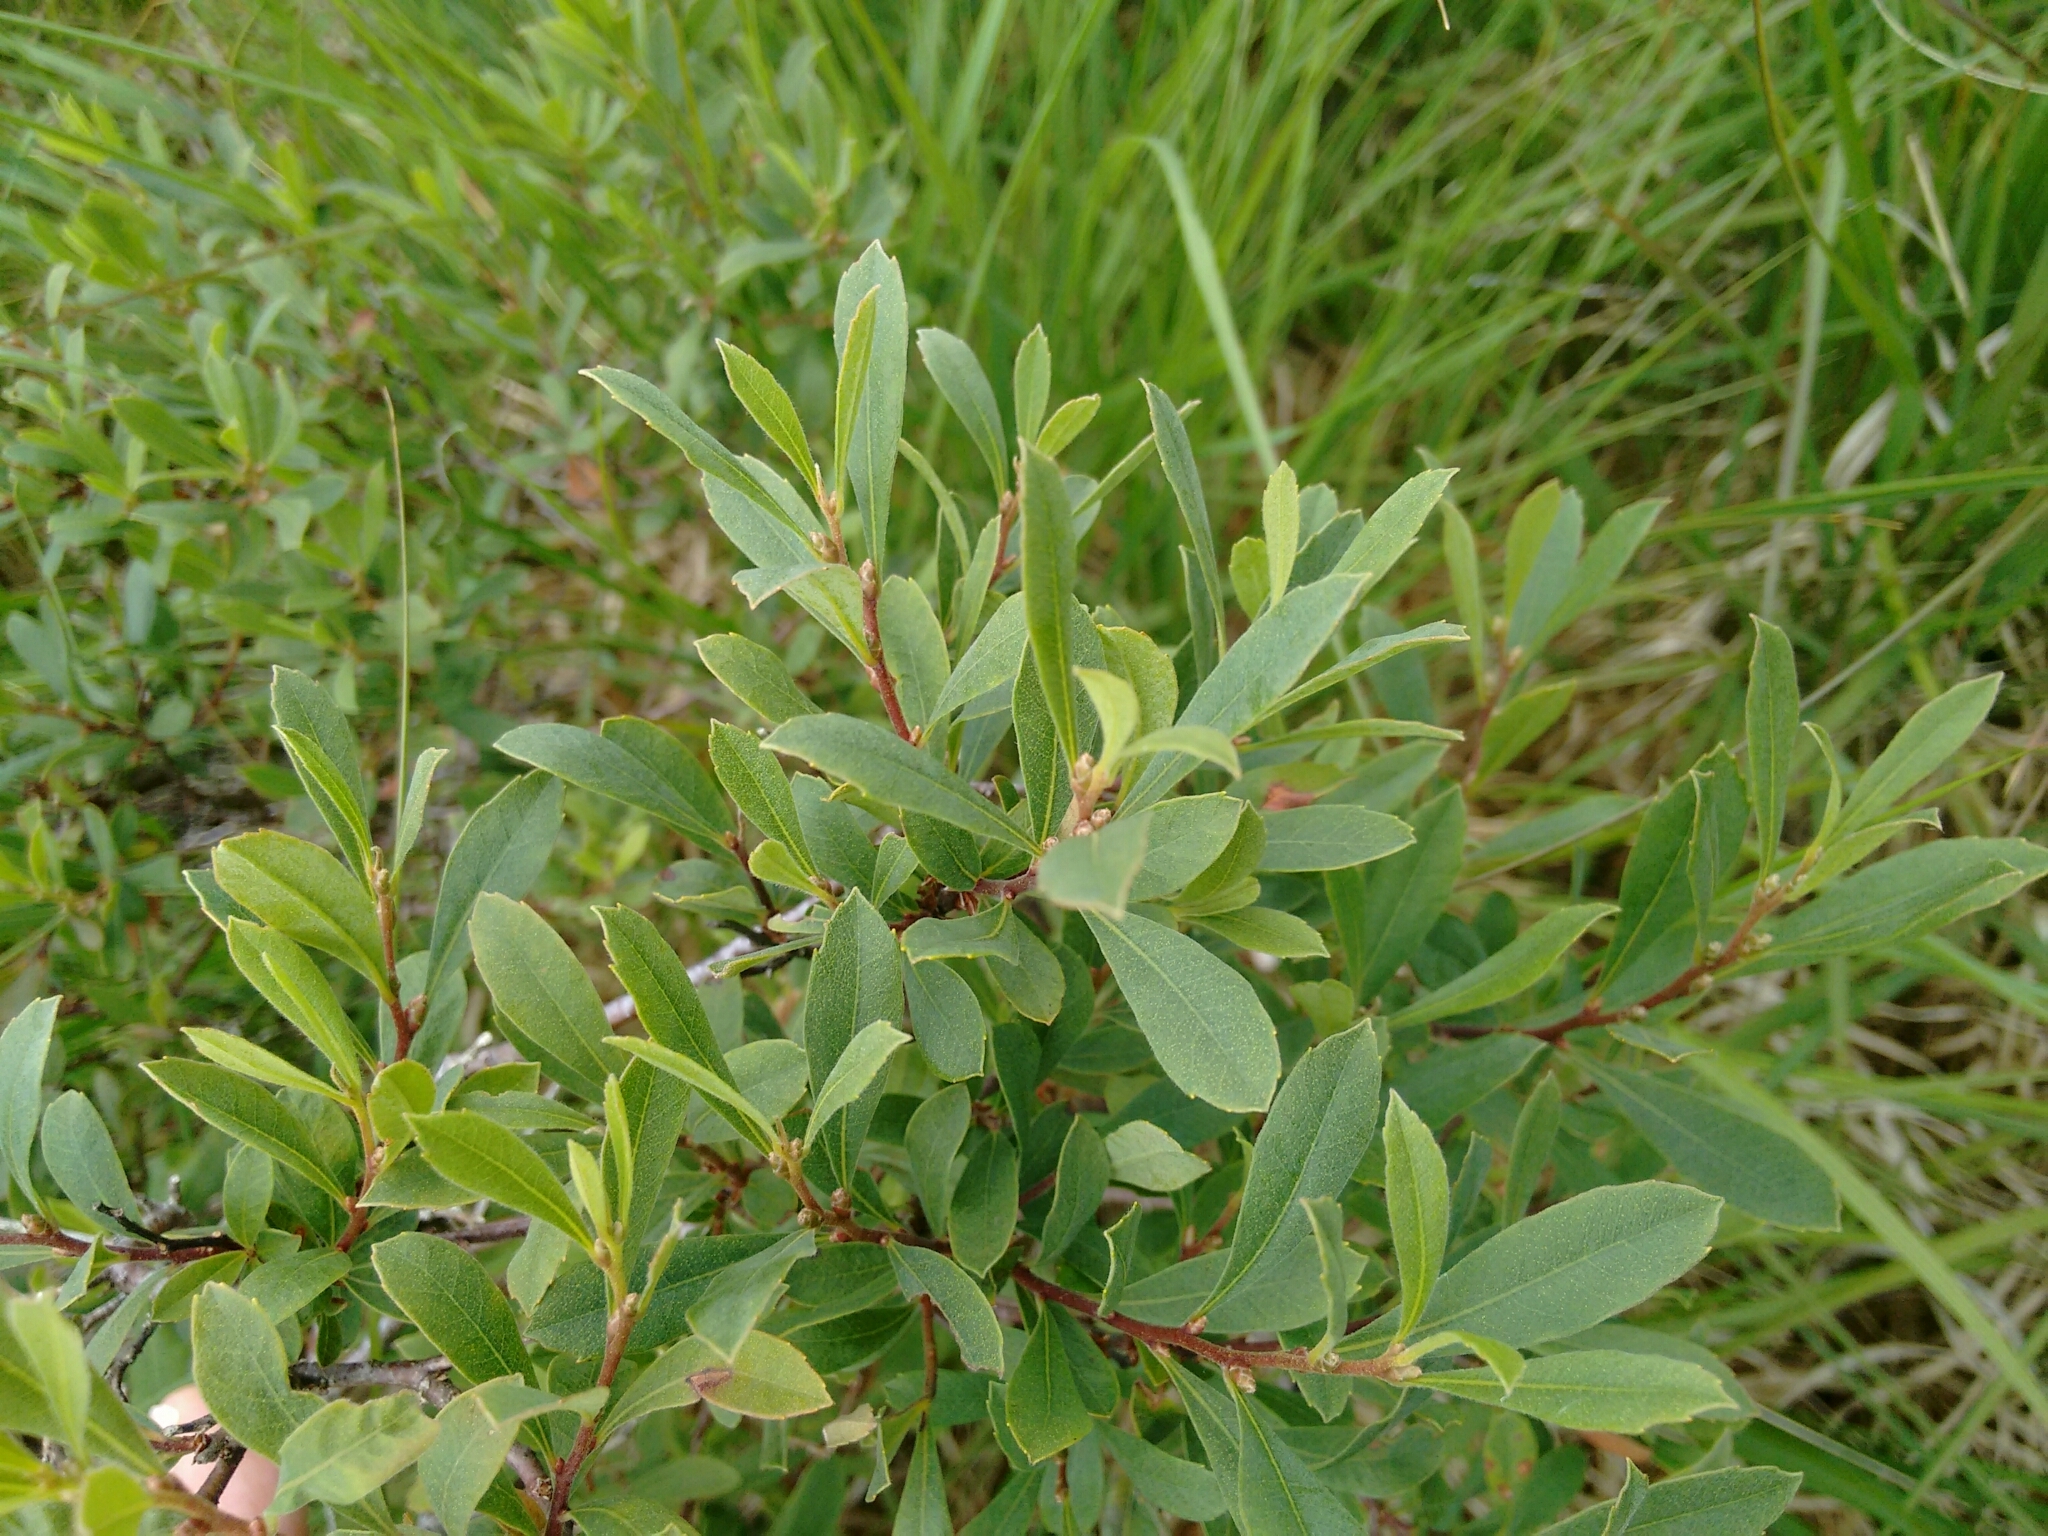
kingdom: Plantae
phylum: Tracheophyta
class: Magnoliopsida
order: Fagales
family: Myricaceae
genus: Myrica
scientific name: Myrica gale
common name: Sweet gale
